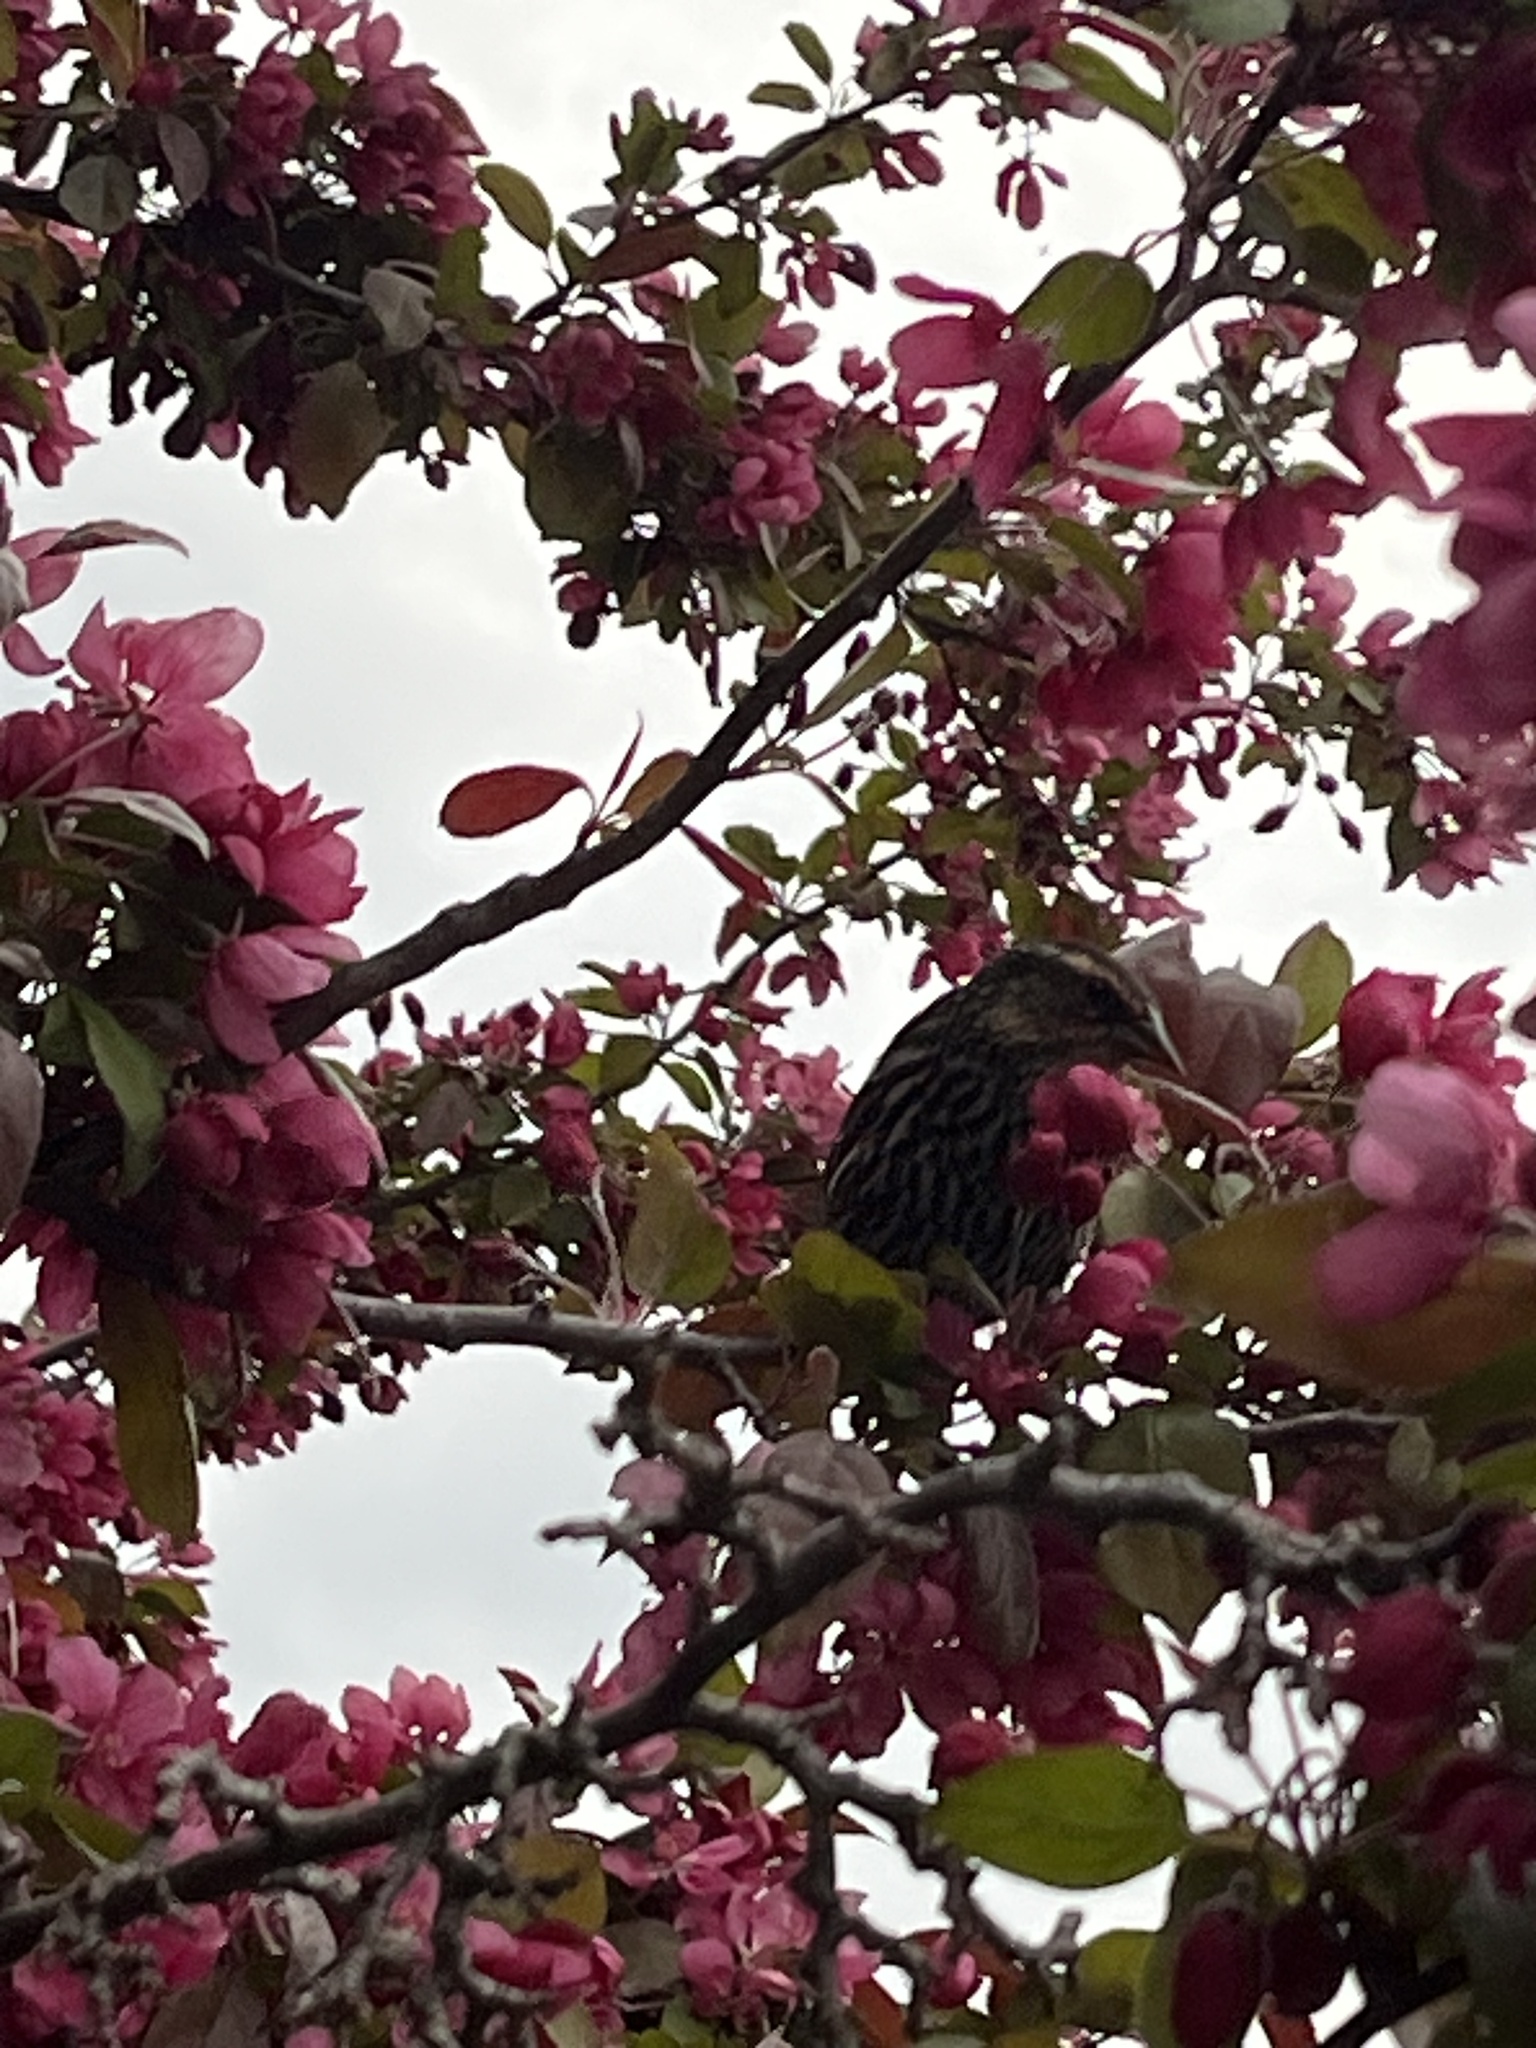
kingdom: Animalia
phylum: Chordata
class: Aves
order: Passeriformes
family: Icteridae
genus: Agelaius
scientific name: Agelaius phoeniceus
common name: Red-winged blackbird
